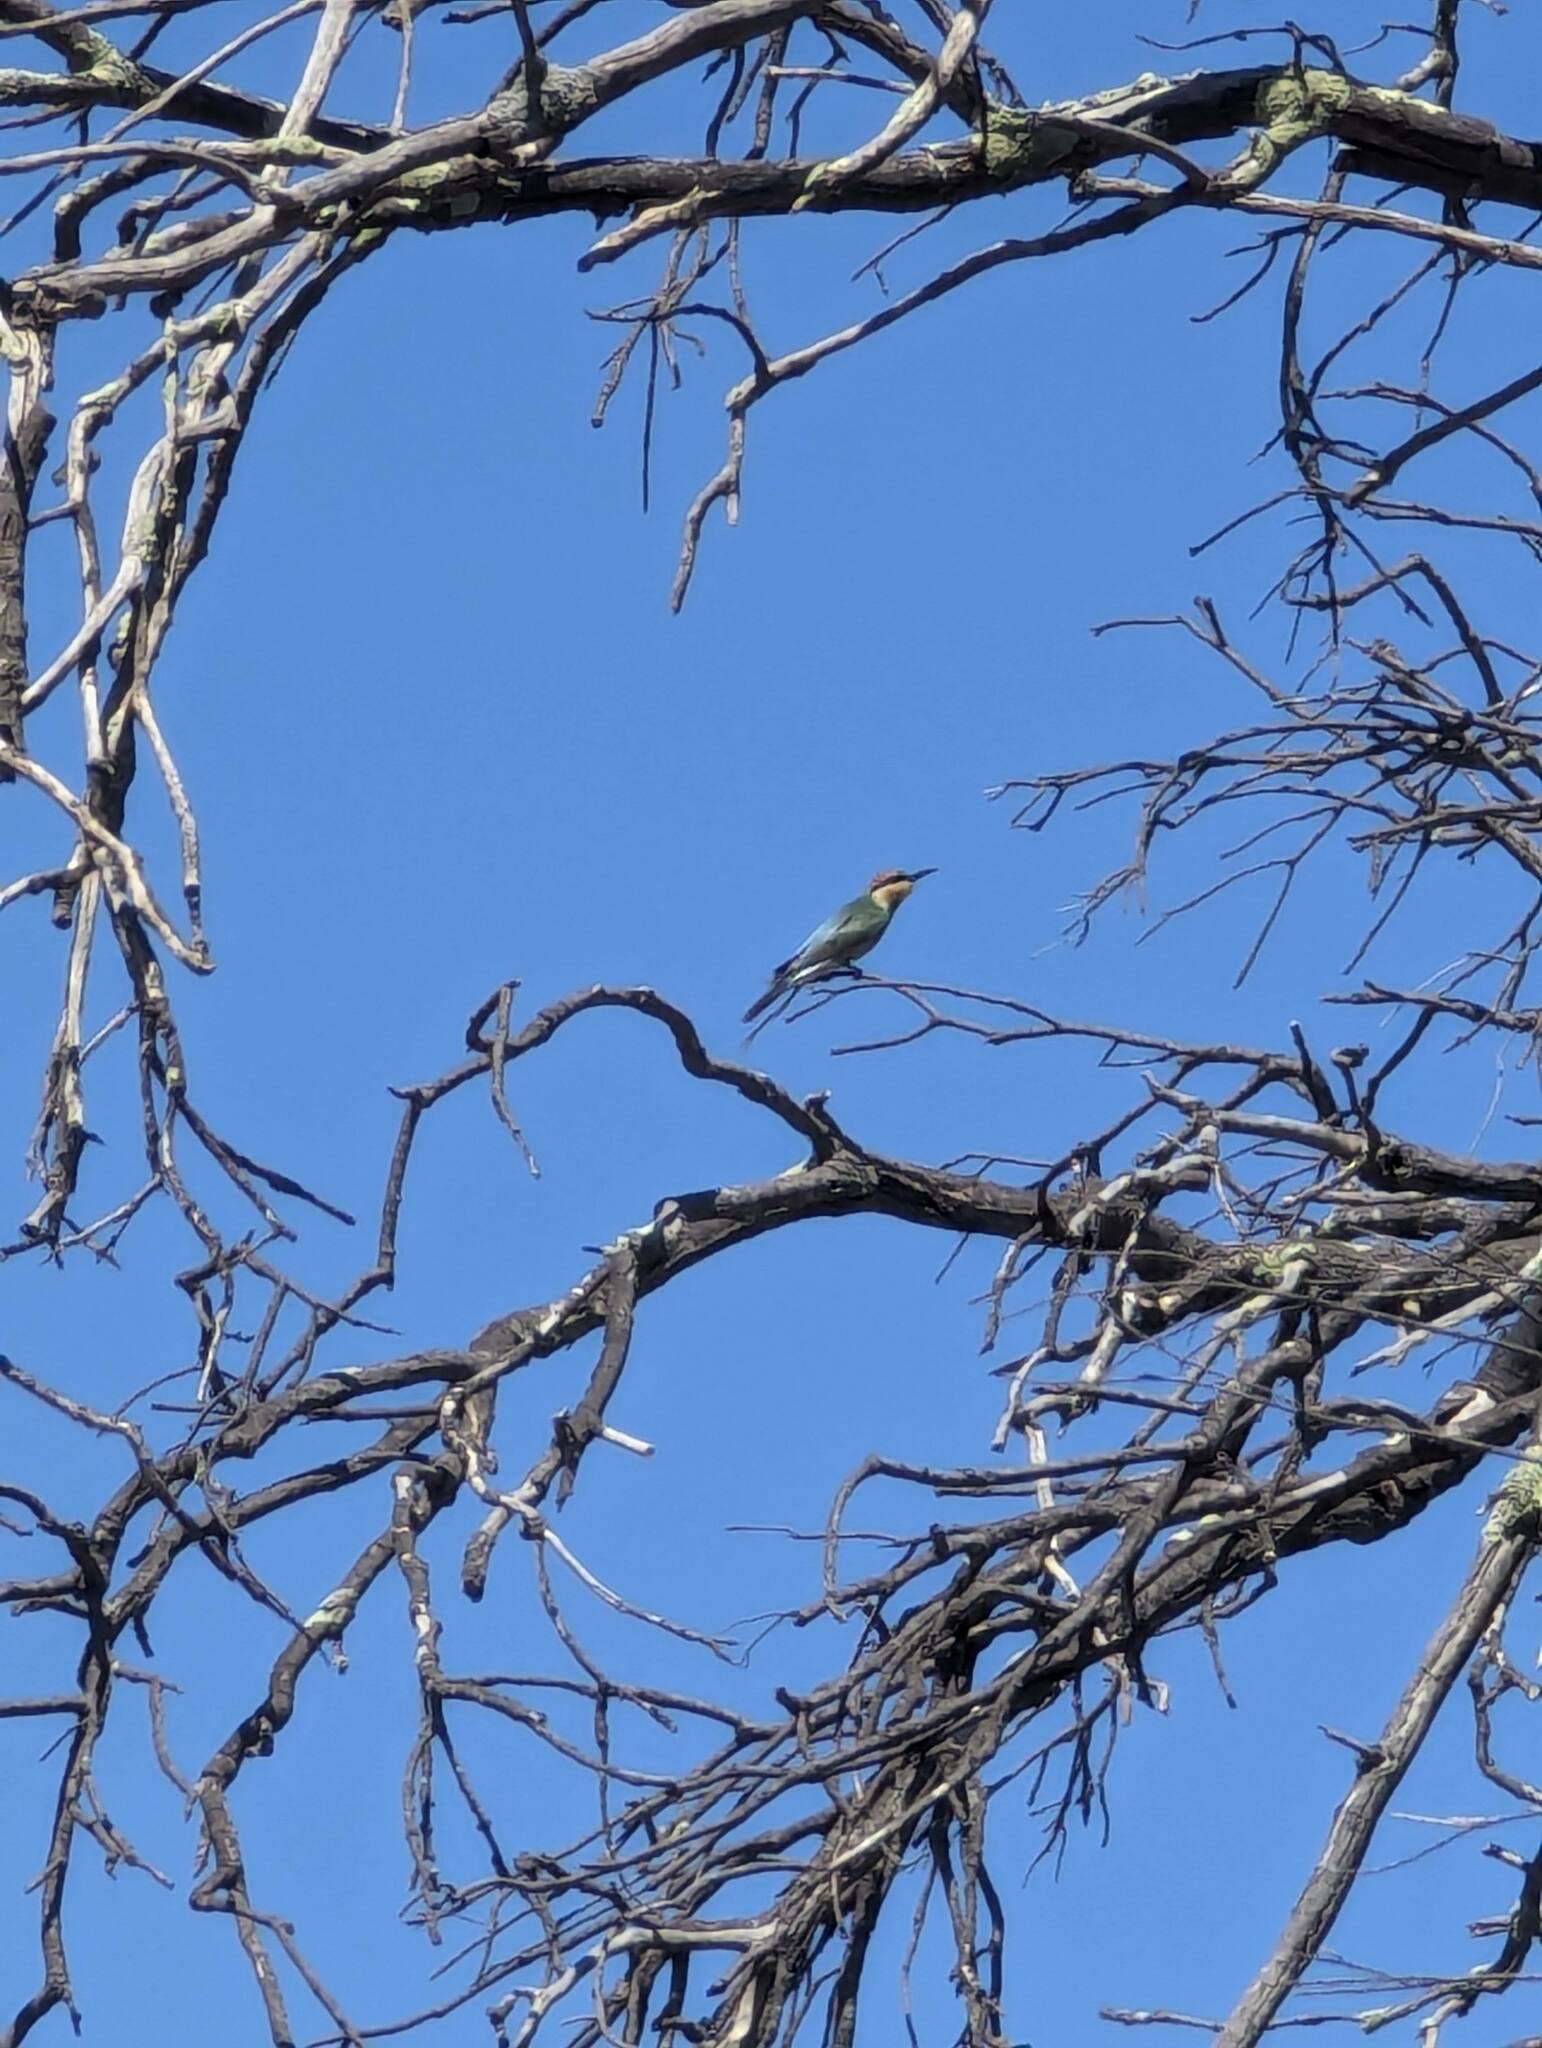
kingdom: Animalia
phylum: Chordata
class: Aves
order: Coraciiformes
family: Meropidae
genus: Merops
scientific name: Merops ornatus
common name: Rainbow bee-eater
